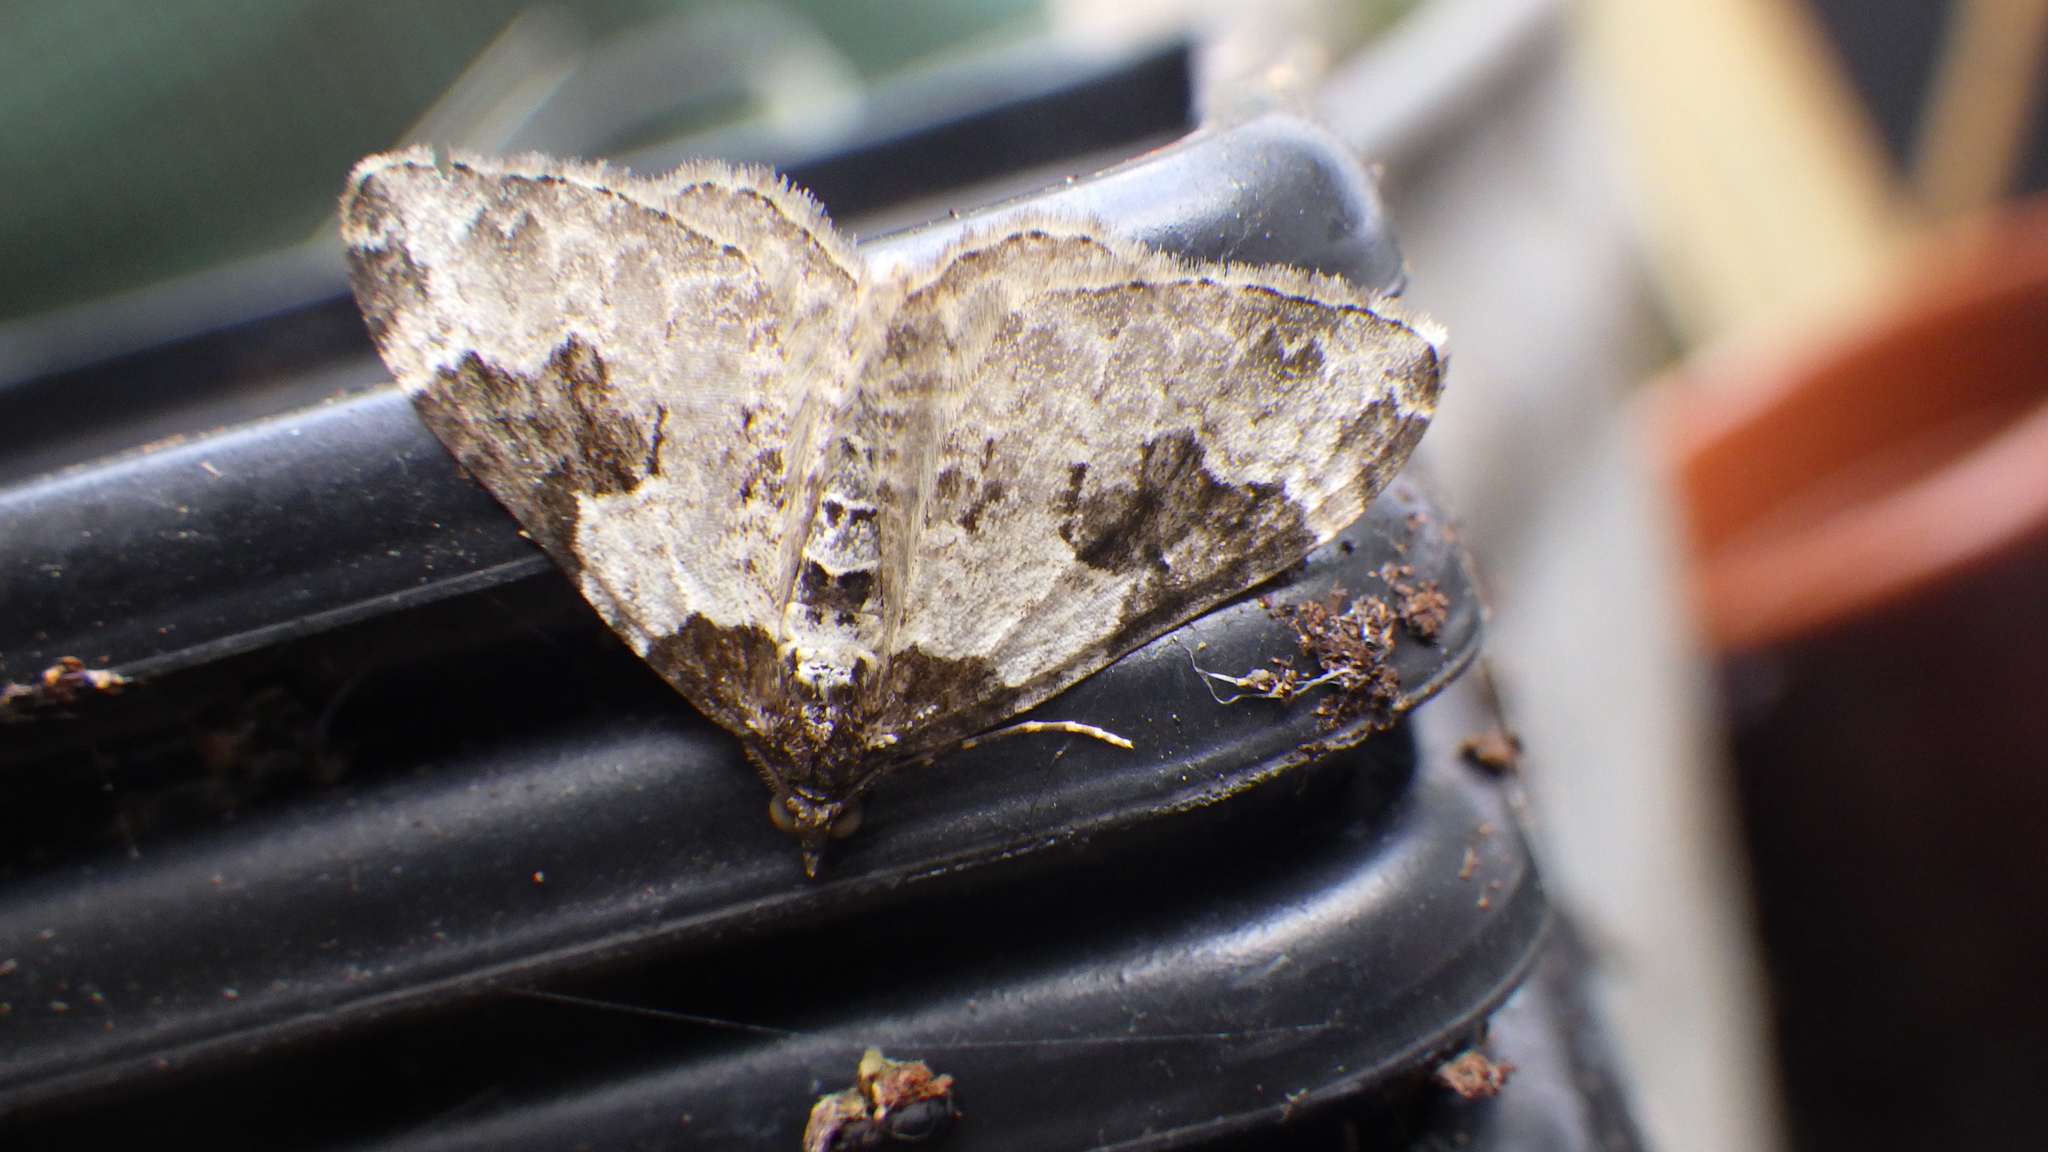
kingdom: Animalia
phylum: Arthropoda
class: Insecta
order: Lepidoptera
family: Geometridae
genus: Xanthorhoe
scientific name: Xanthorhoe fluctuata
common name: Garden carpet
